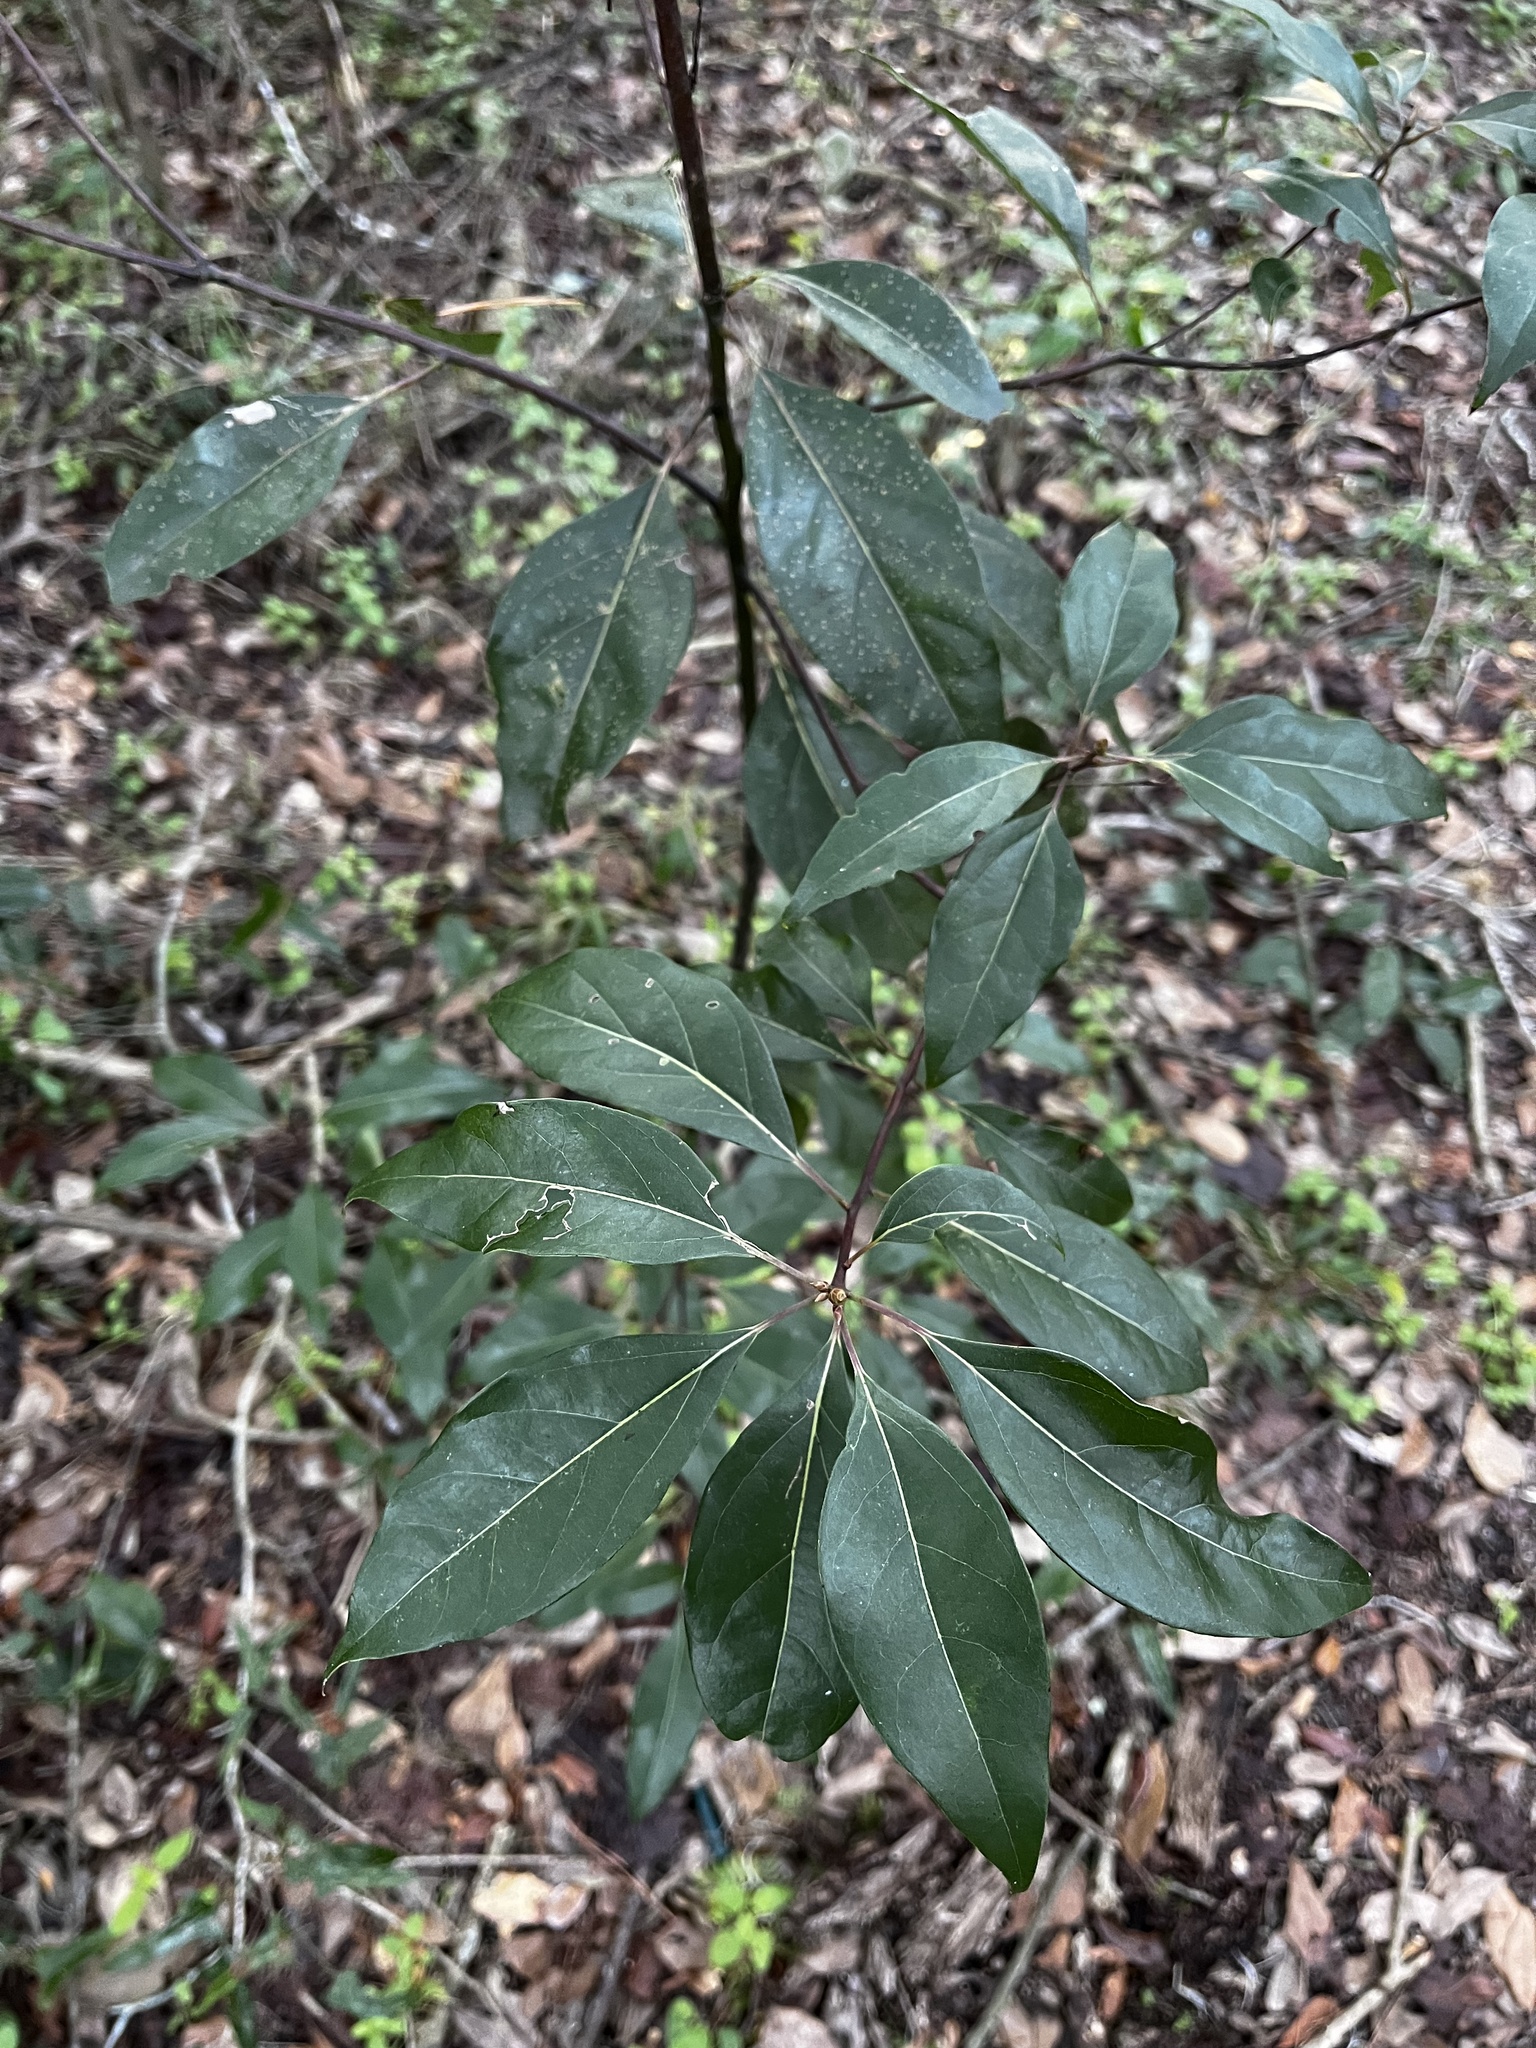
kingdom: Plantae
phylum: Tracheophyta
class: Magnoliopsida
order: Laurales
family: Lauraceae
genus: Cinnamomum
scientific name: Cinnamomum camphora
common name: Camphortree
